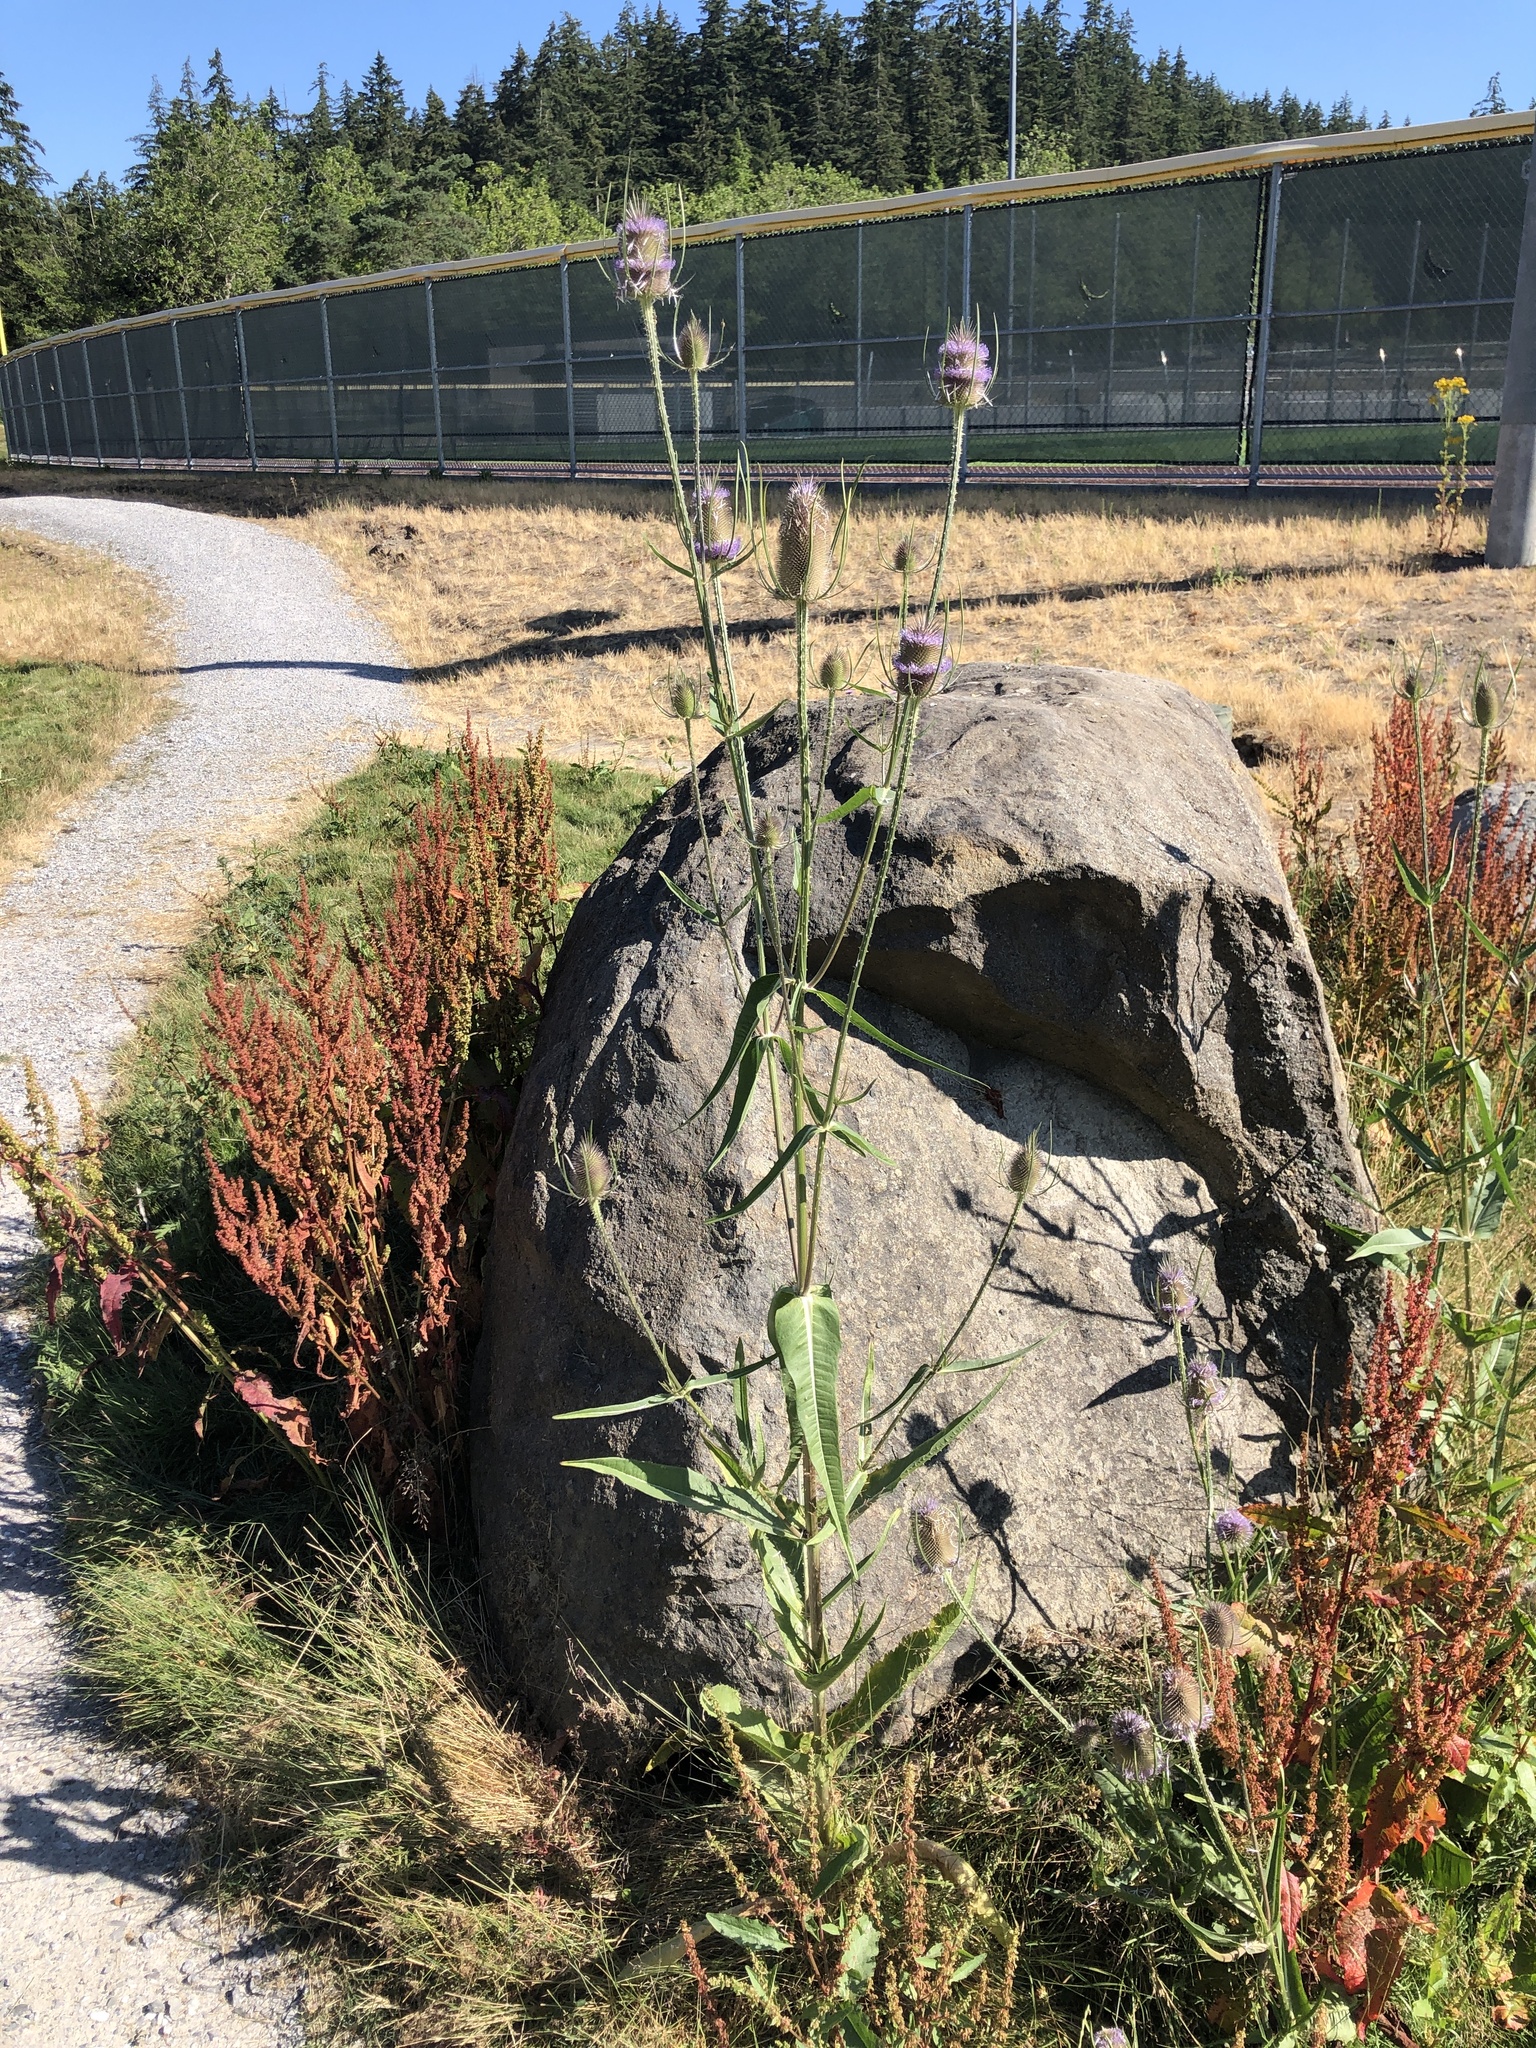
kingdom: Plantae
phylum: Tracheophyta
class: Magnoliopsida
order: Dipsacales
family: Caprifoliaceae
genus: Dipsacus
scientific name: Dipsacus fullonum
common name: Teasel
